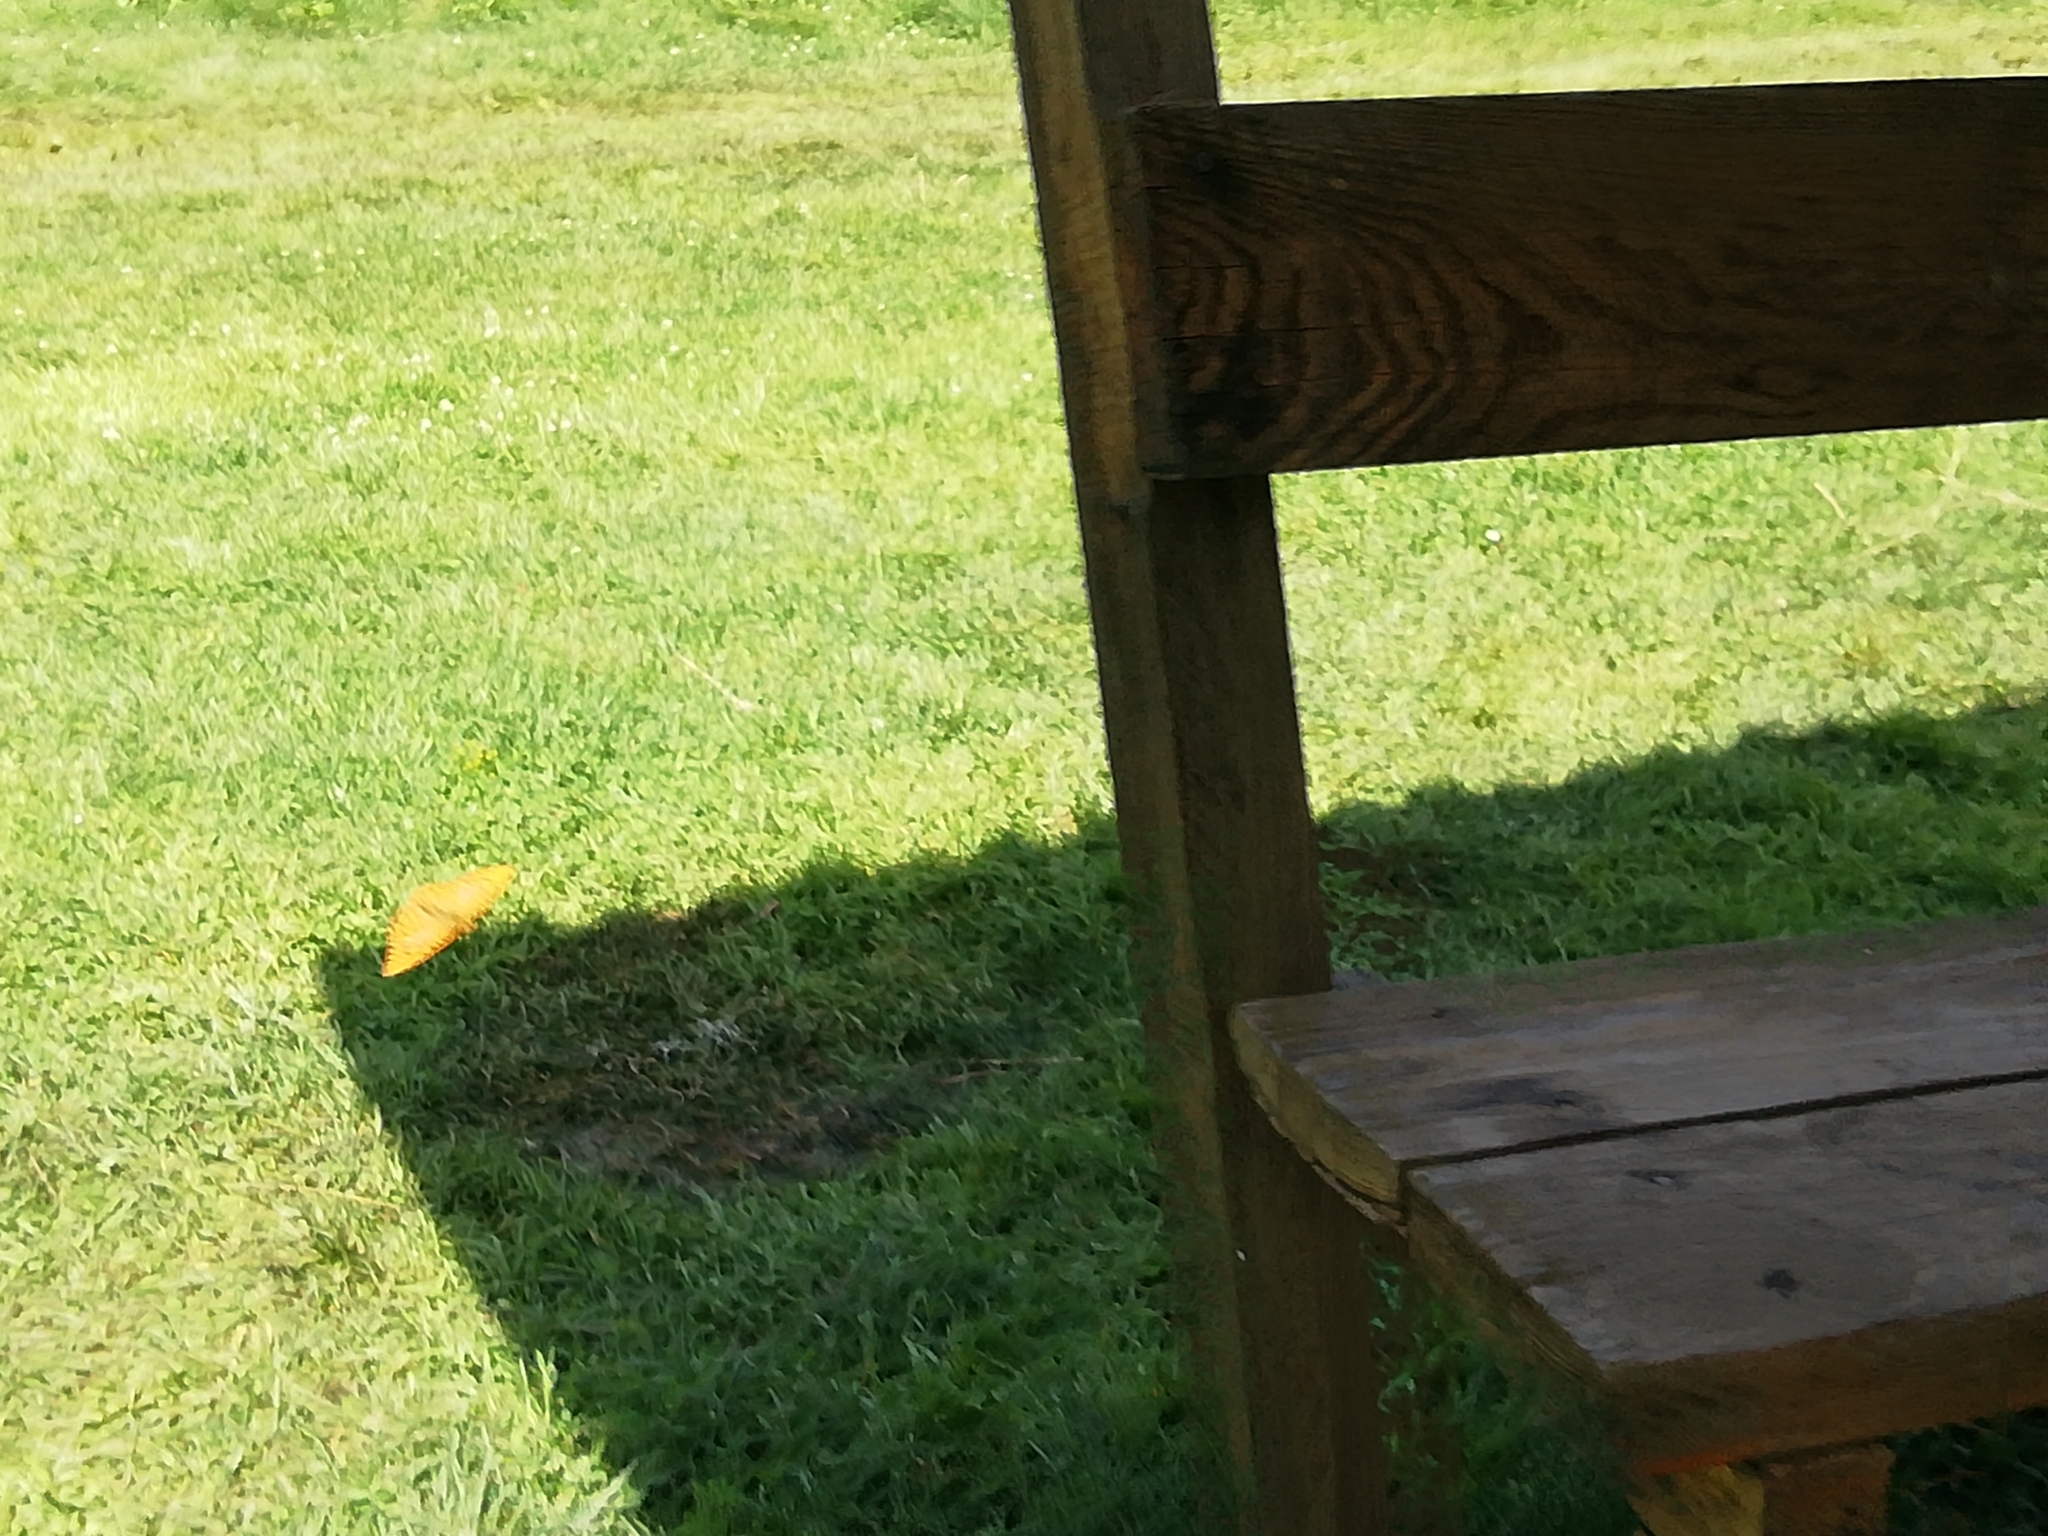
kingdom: Animalia
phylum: Arthropoda
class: Insecta
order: Lepidoptera
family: Nymphalidae
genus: Argynnis
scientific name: Argynnis paphia
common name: Silver-washed fritillary
